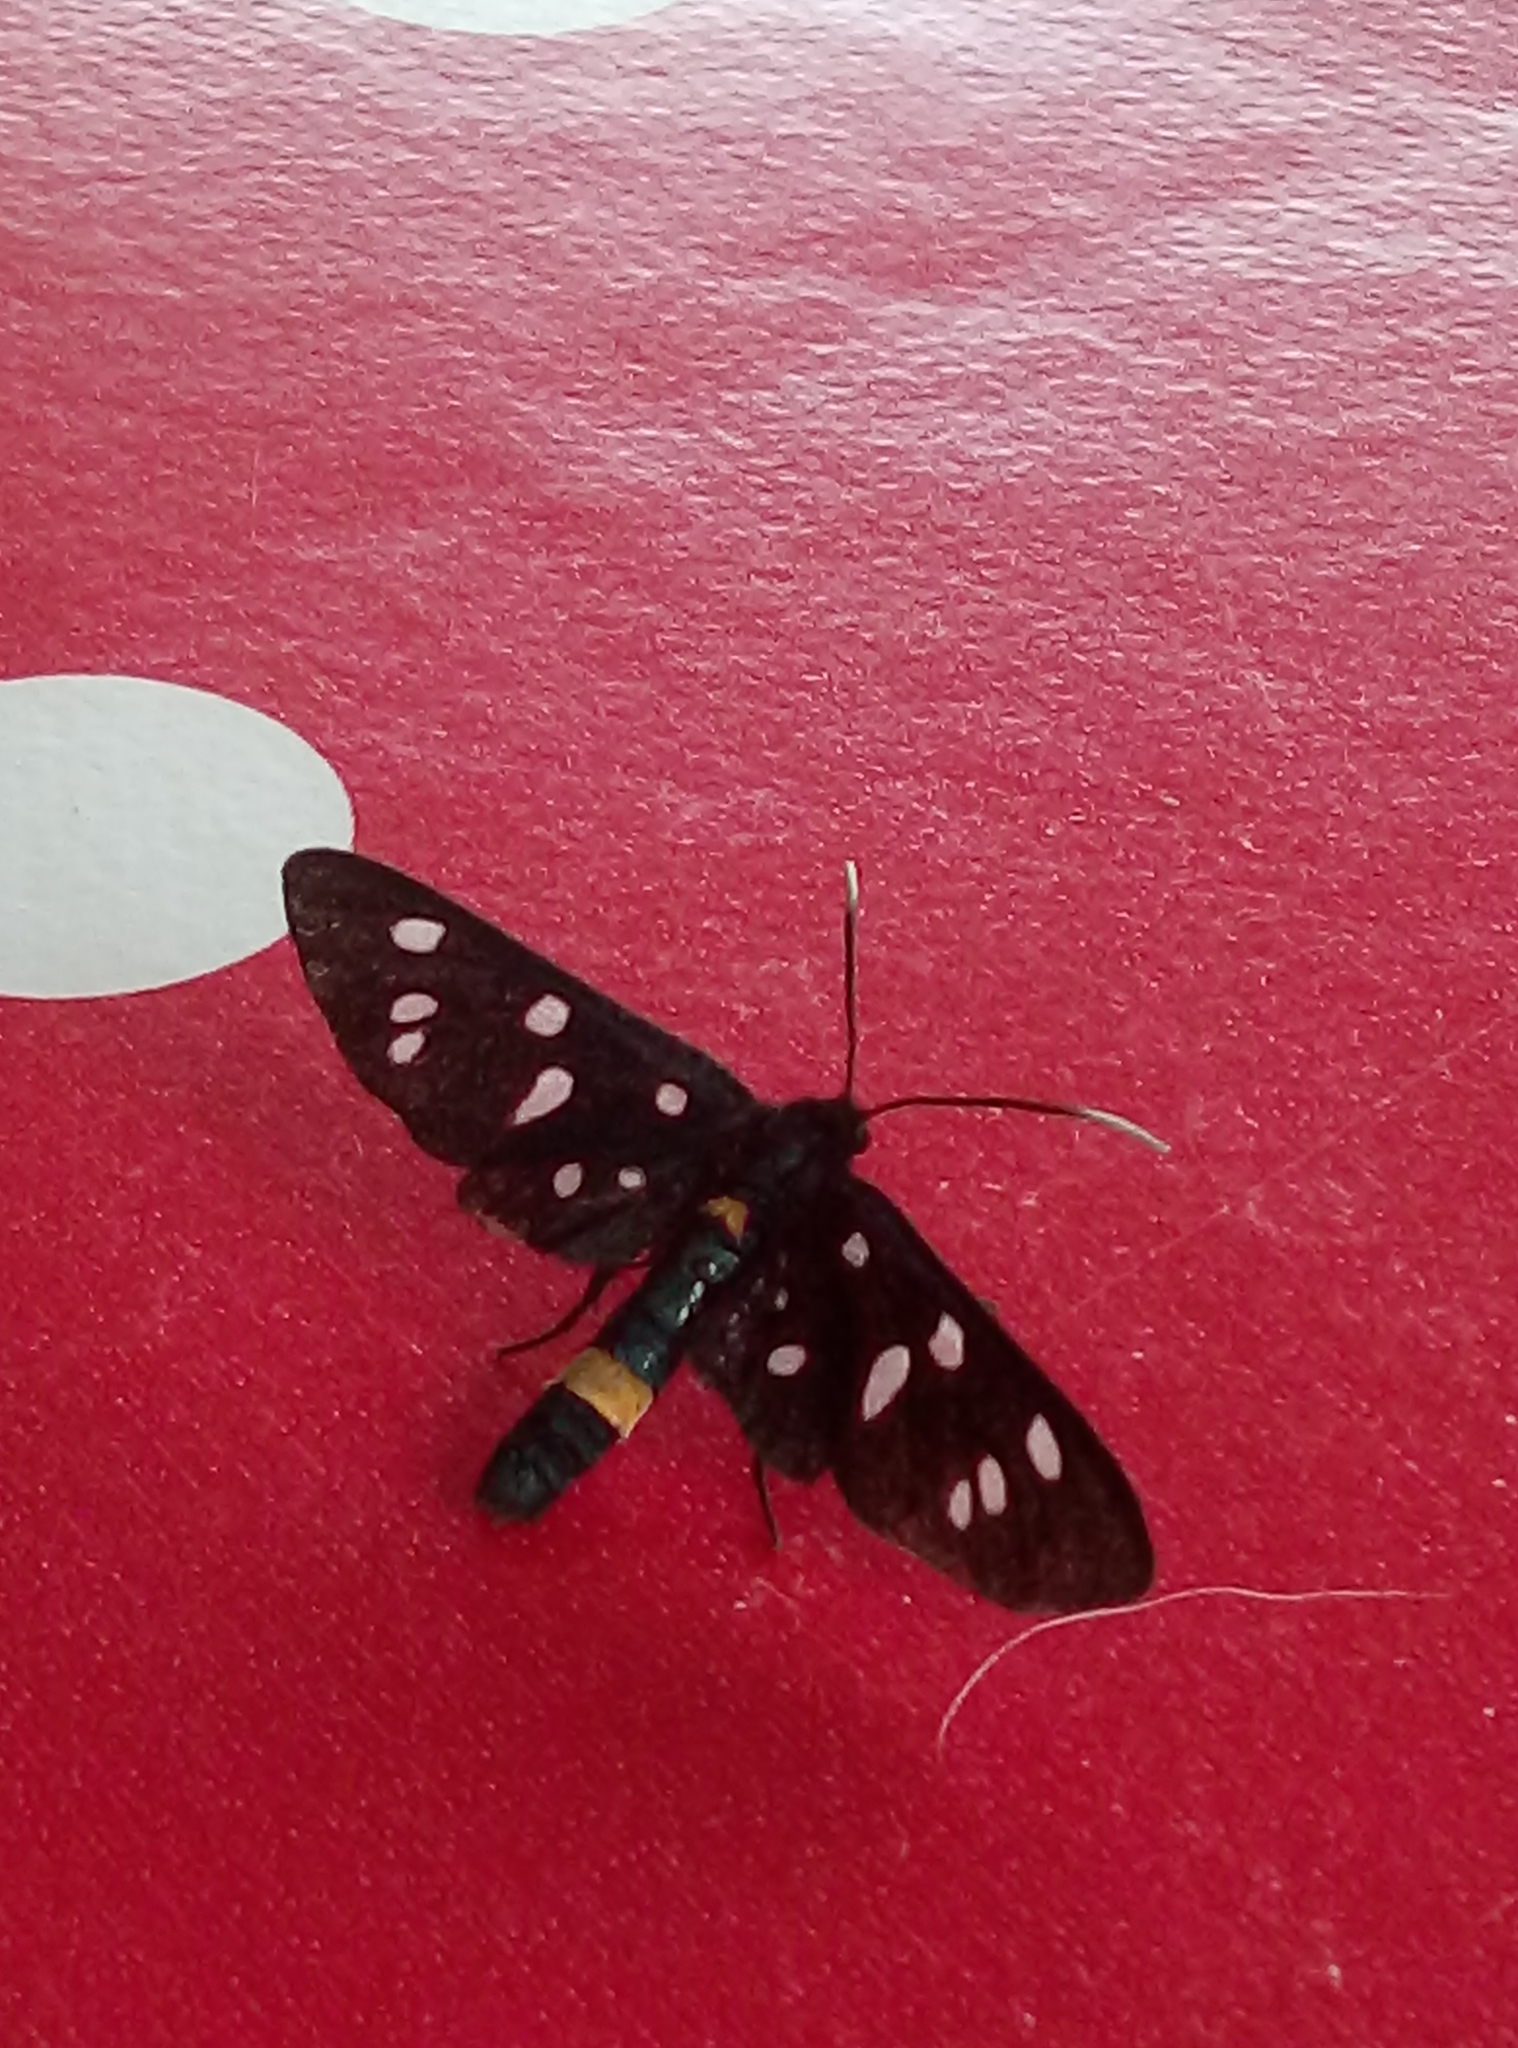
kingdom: Animalia
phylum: Arthropoda
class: Insecta
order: Lepidoptera
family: Erebidae
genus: Amata
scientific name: Amata phegea
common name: Nine-spotted
